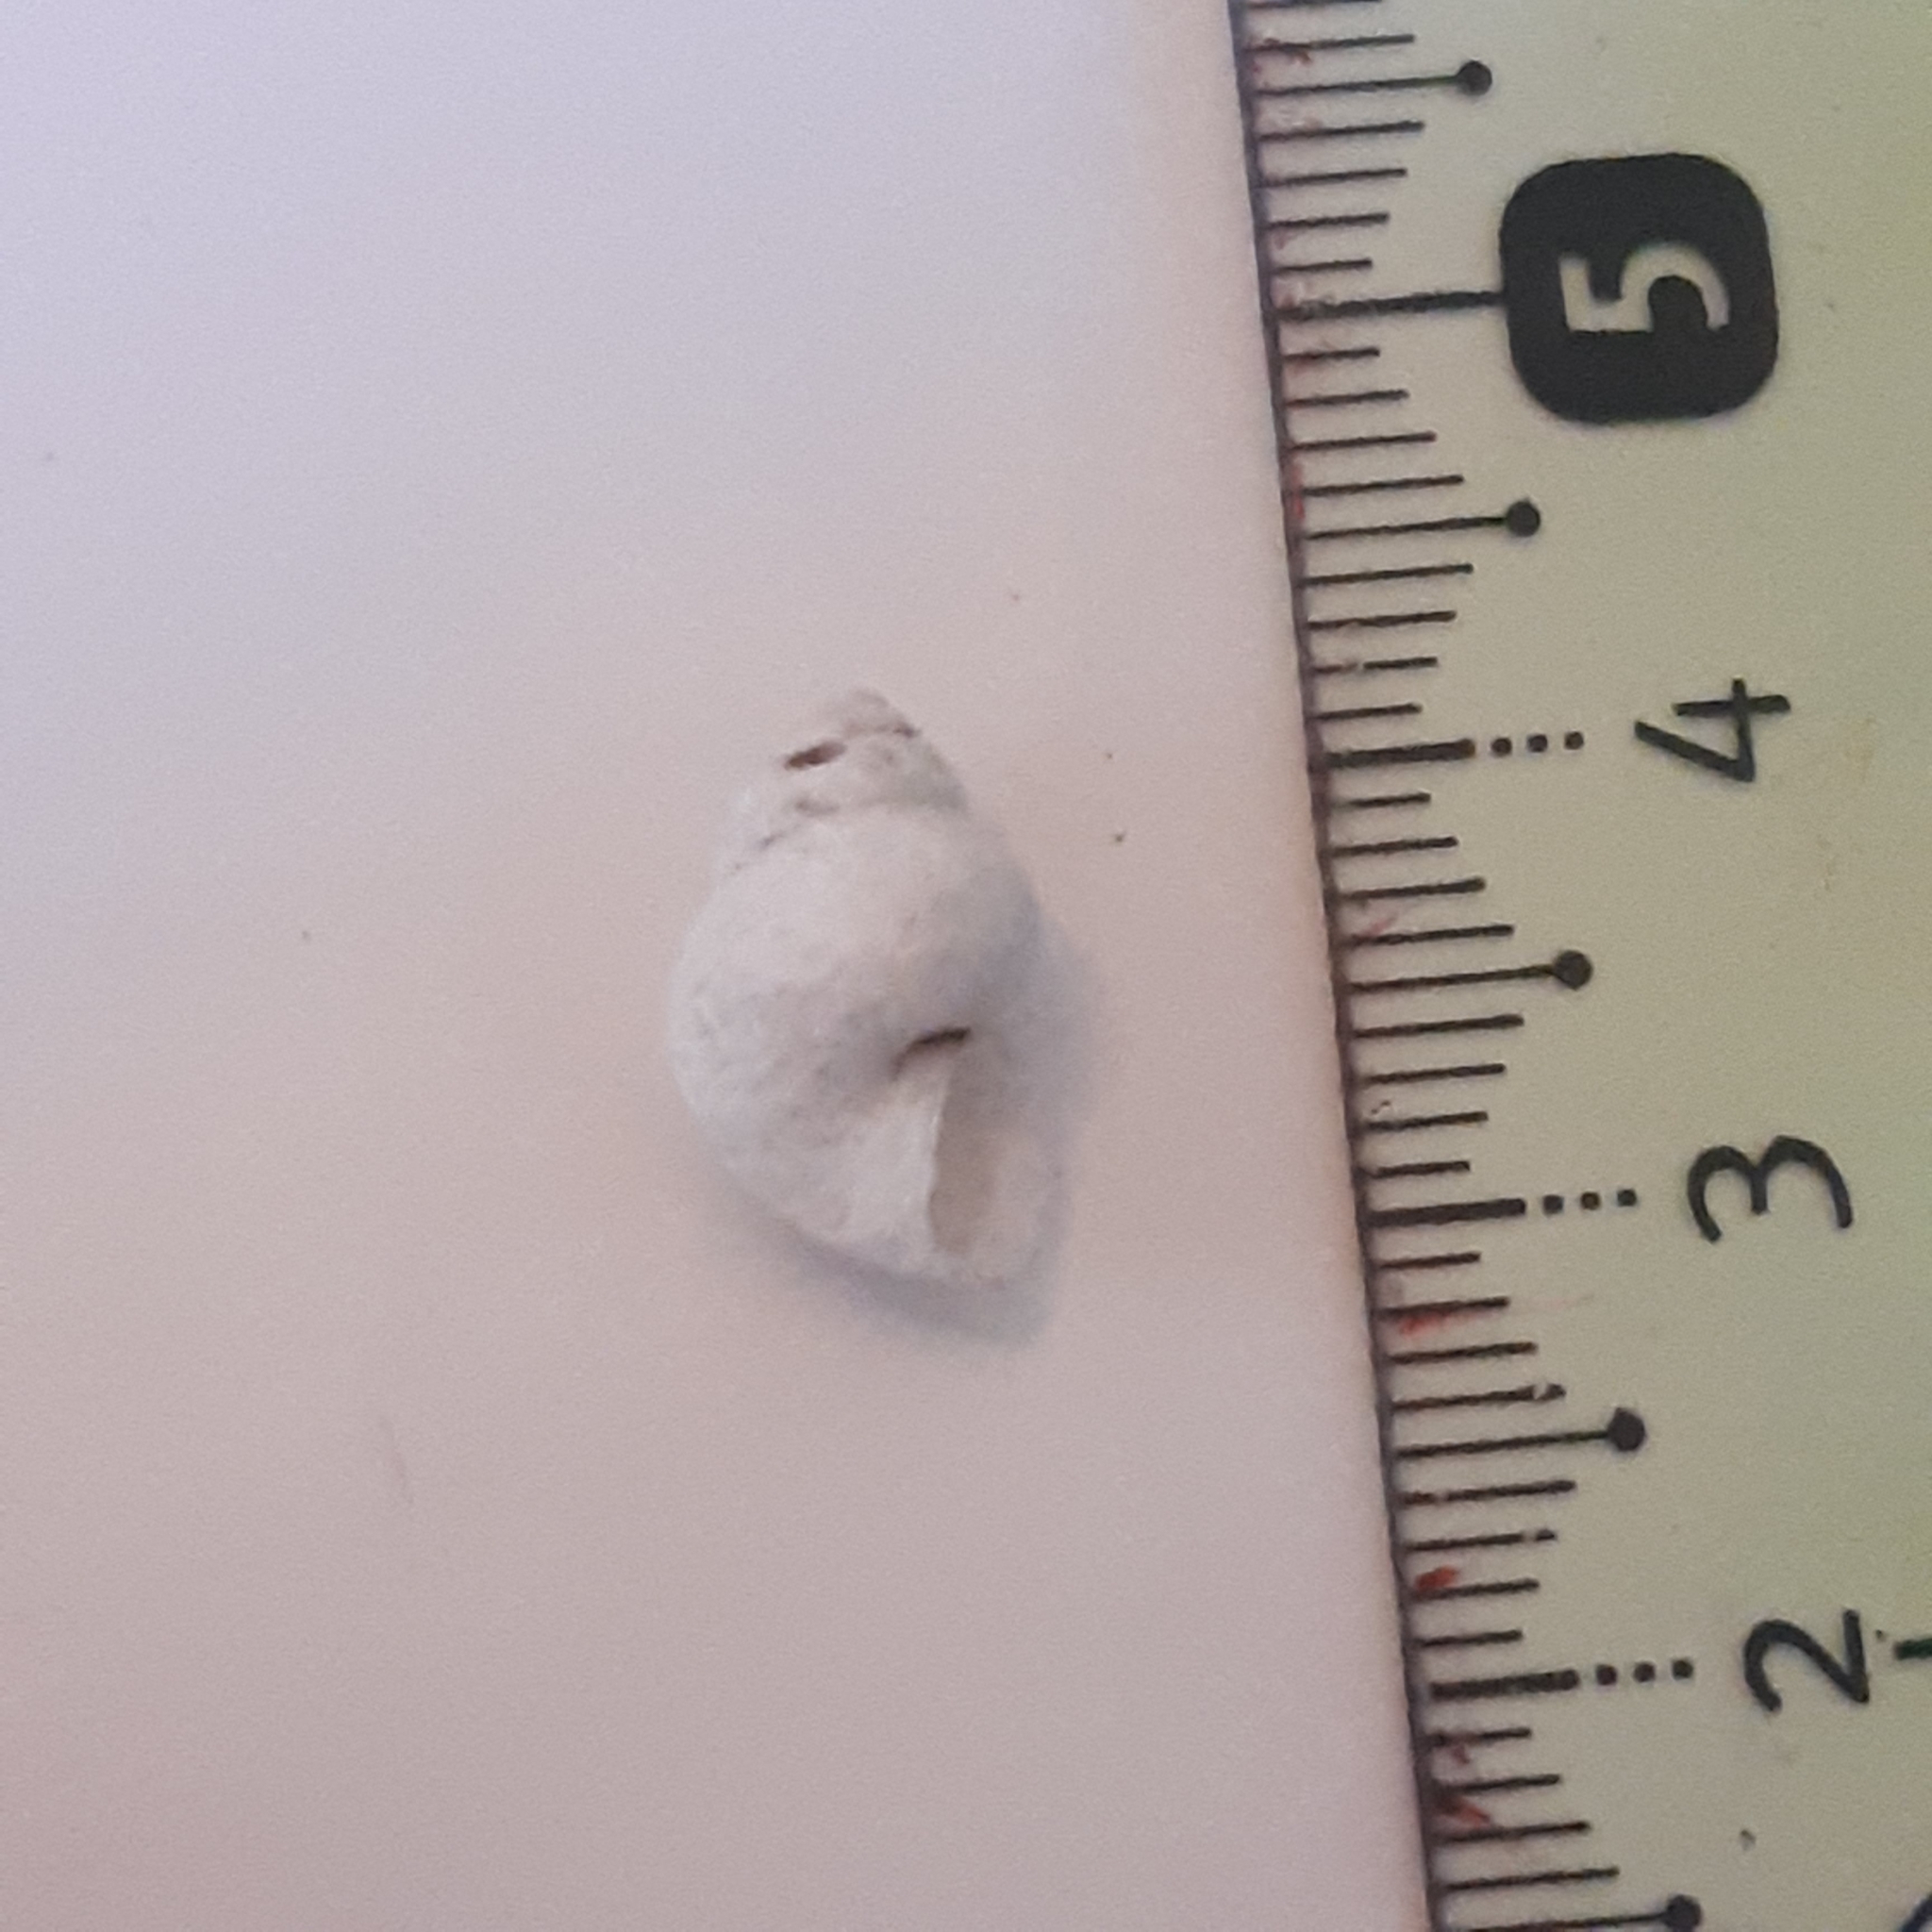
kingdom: Animalia
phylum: Mollusca
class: Gastropoda
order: Littorinimorpha
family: Pomatiidae
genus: Pomatias
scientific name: Pomatias elegans
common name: Red-mouthed snail
